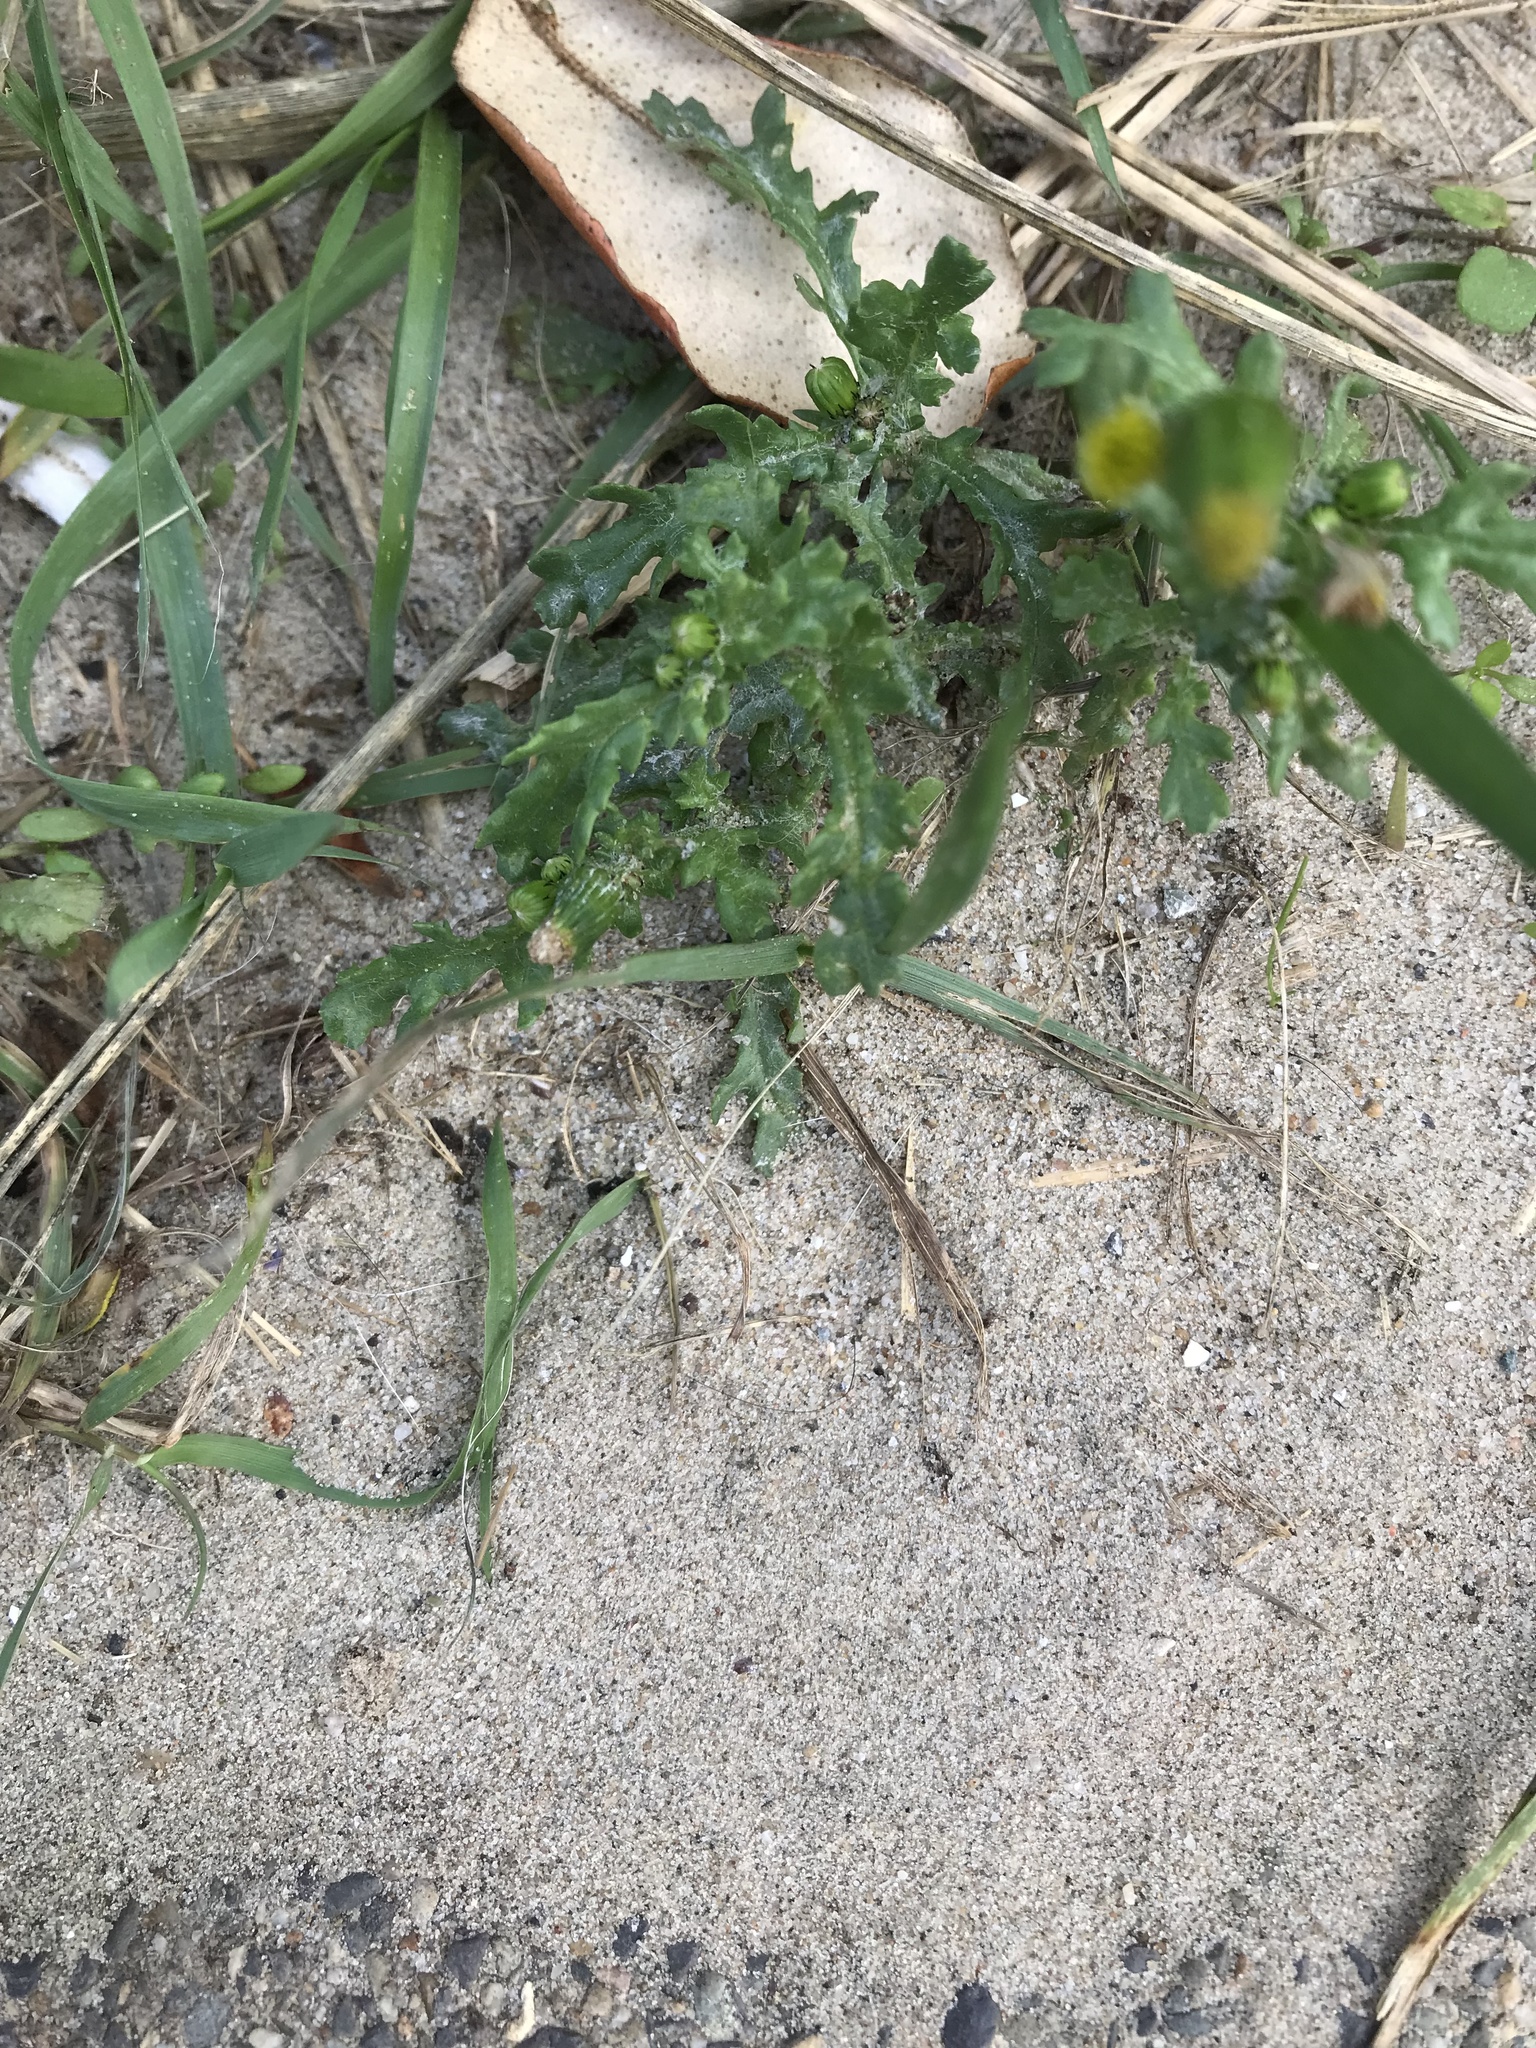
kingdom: Plantae
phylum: Tracheophyta
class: Magnoliopsida
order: Asterales
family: Asteraceae
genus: Senecio
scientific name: Senecio vulgaris
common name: Old-man-in-the-spring
